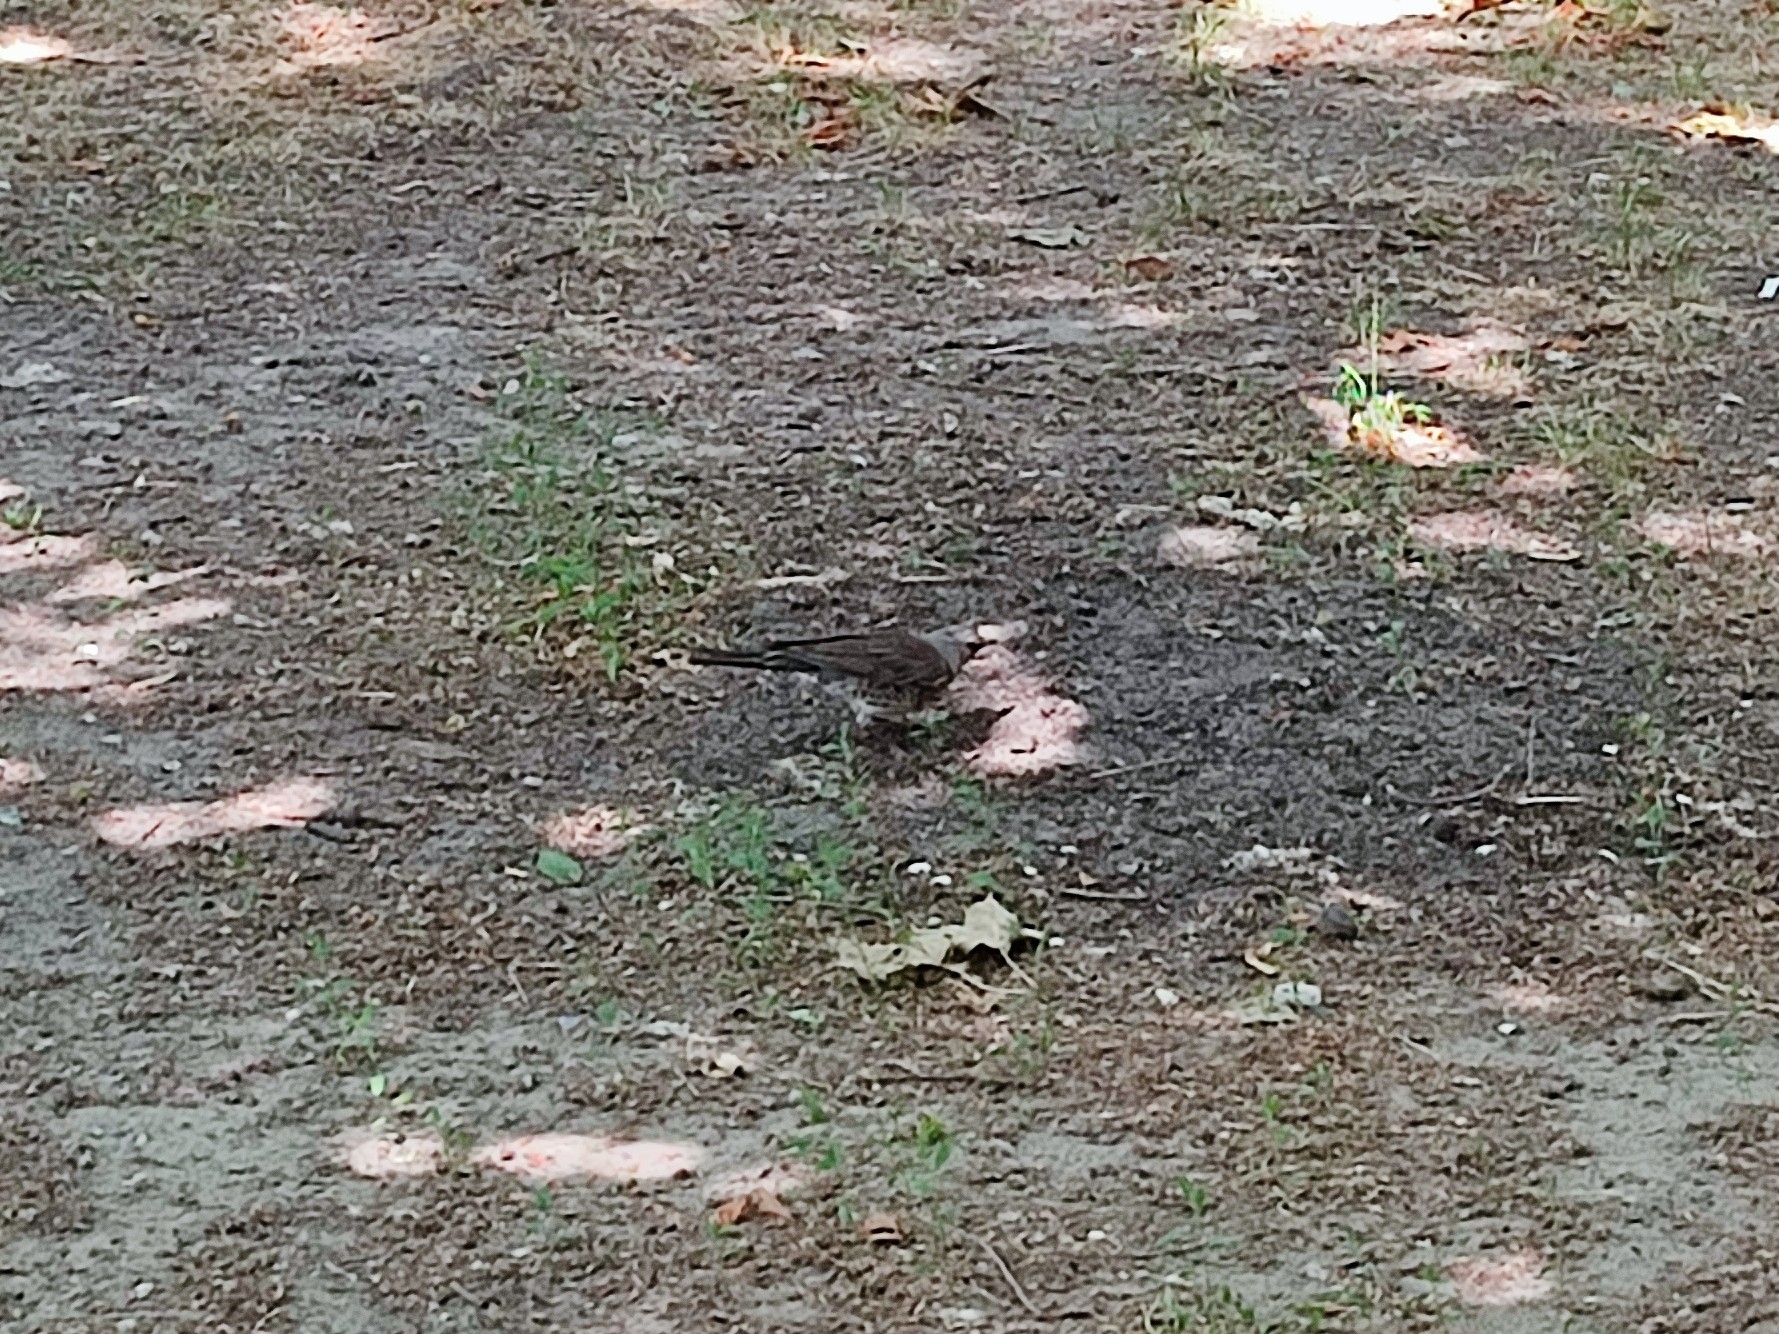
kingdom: Animalia
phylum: Chordata
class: Aves
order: Passeriformes
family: Turdidae
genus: Turdus
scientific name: Turdus pilaris
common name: Fieldfare
